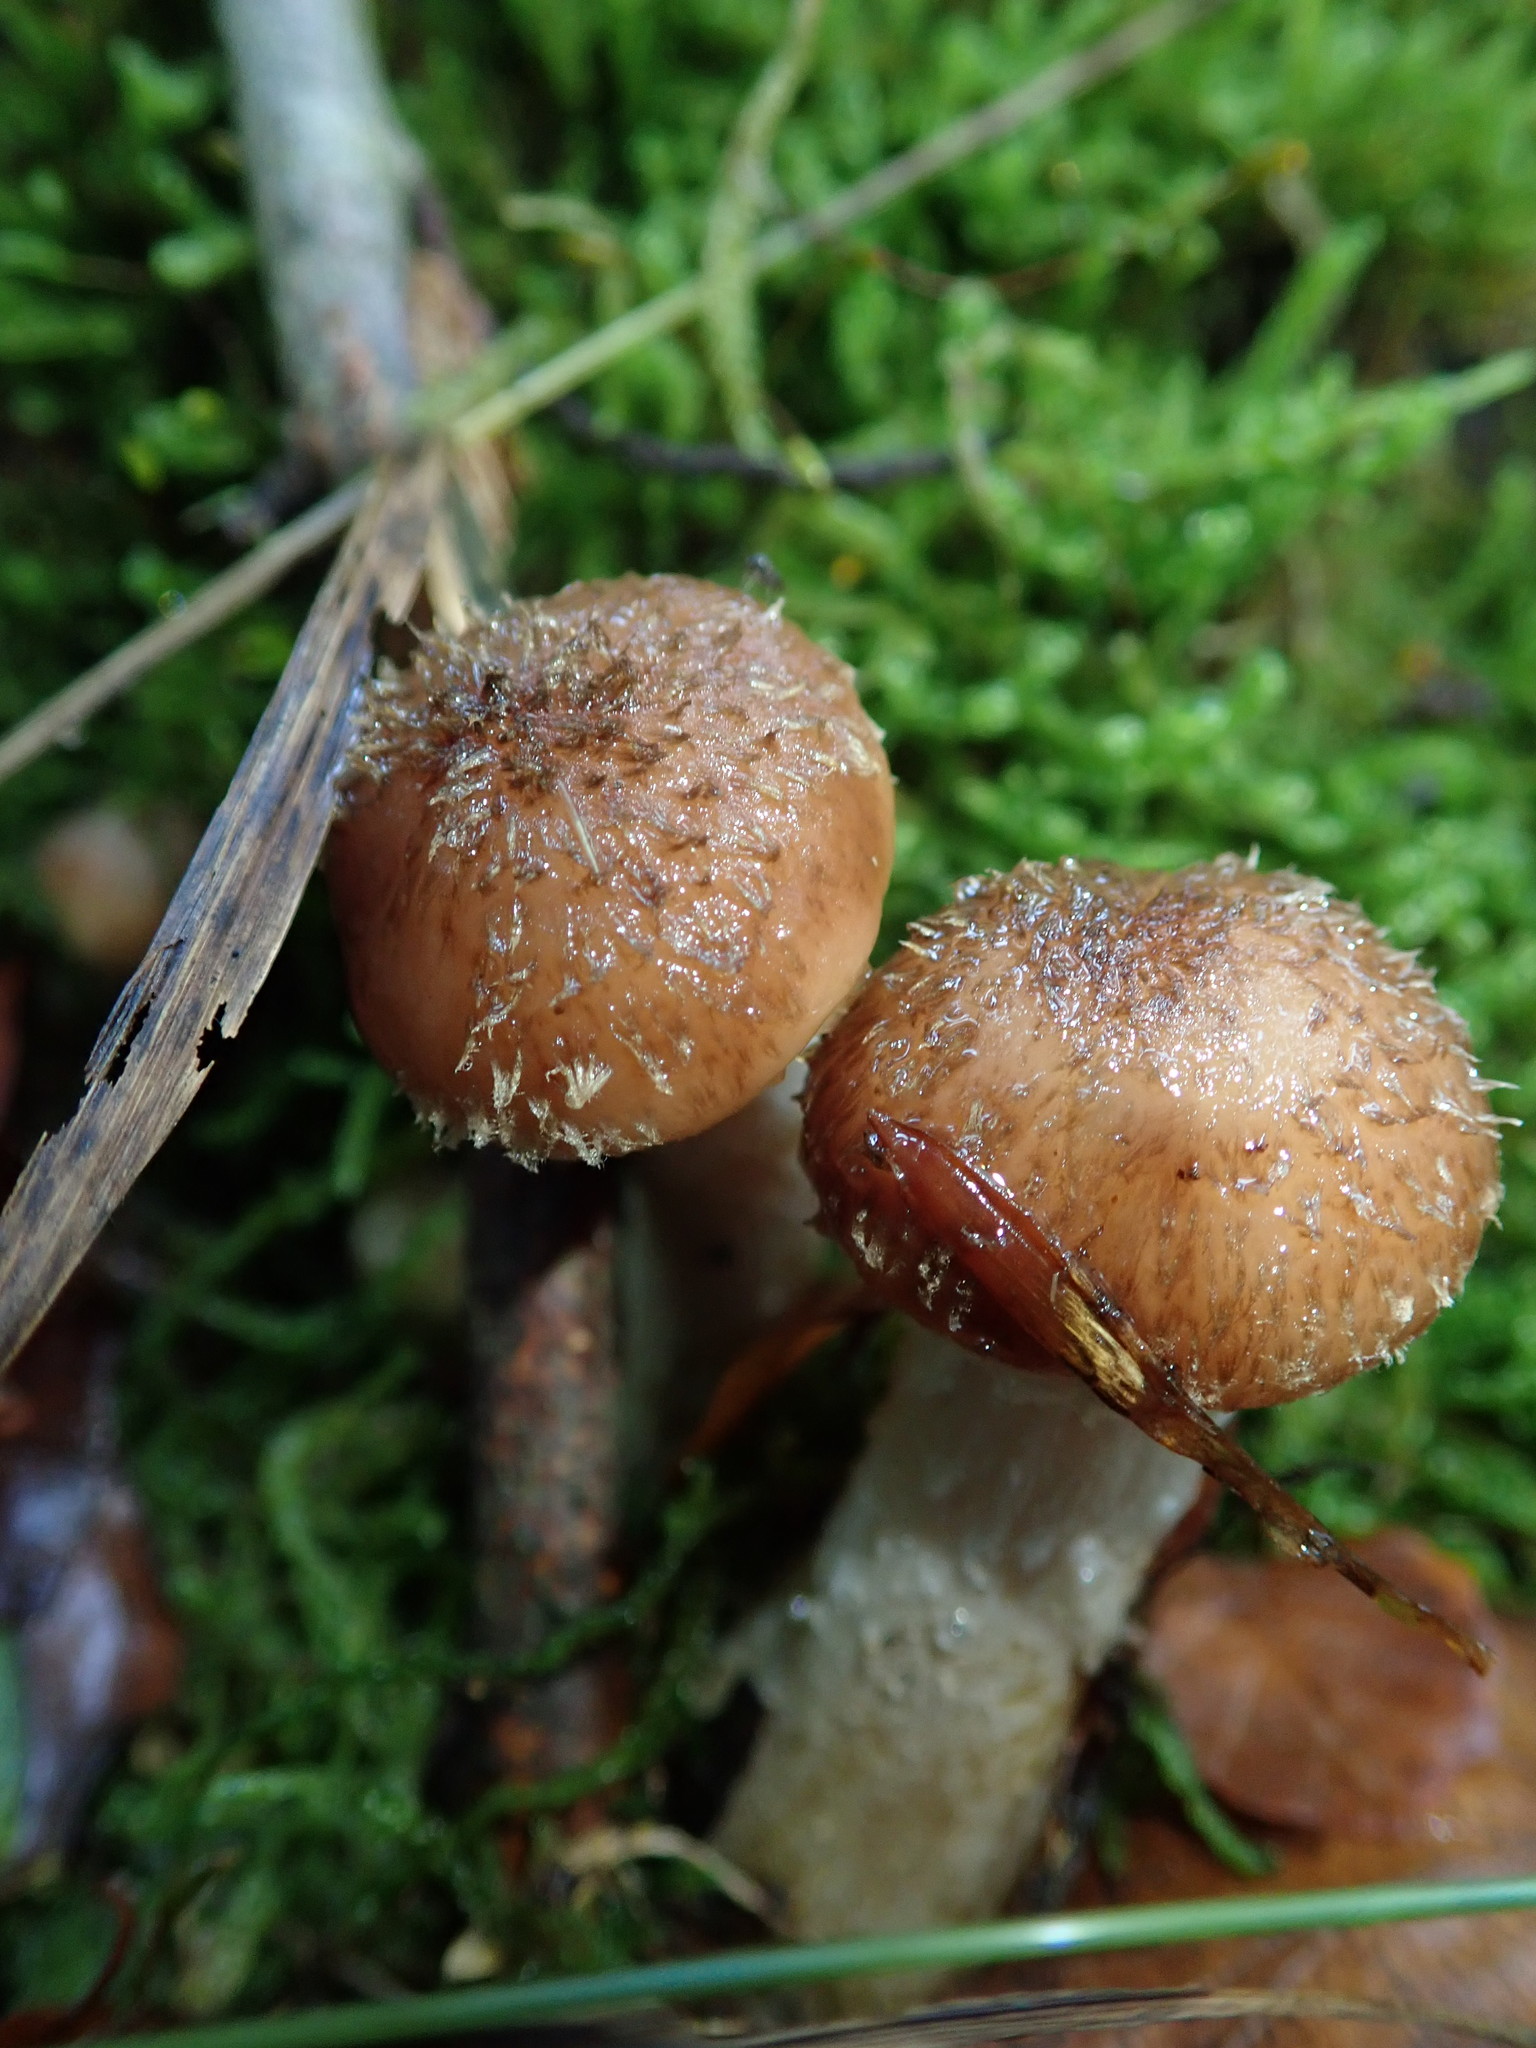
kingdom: Fungi
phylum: Basidiomycota
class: Agaricomycetes
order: Agaricales
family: Physalacriaceae
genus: Armillaria
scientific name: Armillaria mellea
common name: Honey fungus
